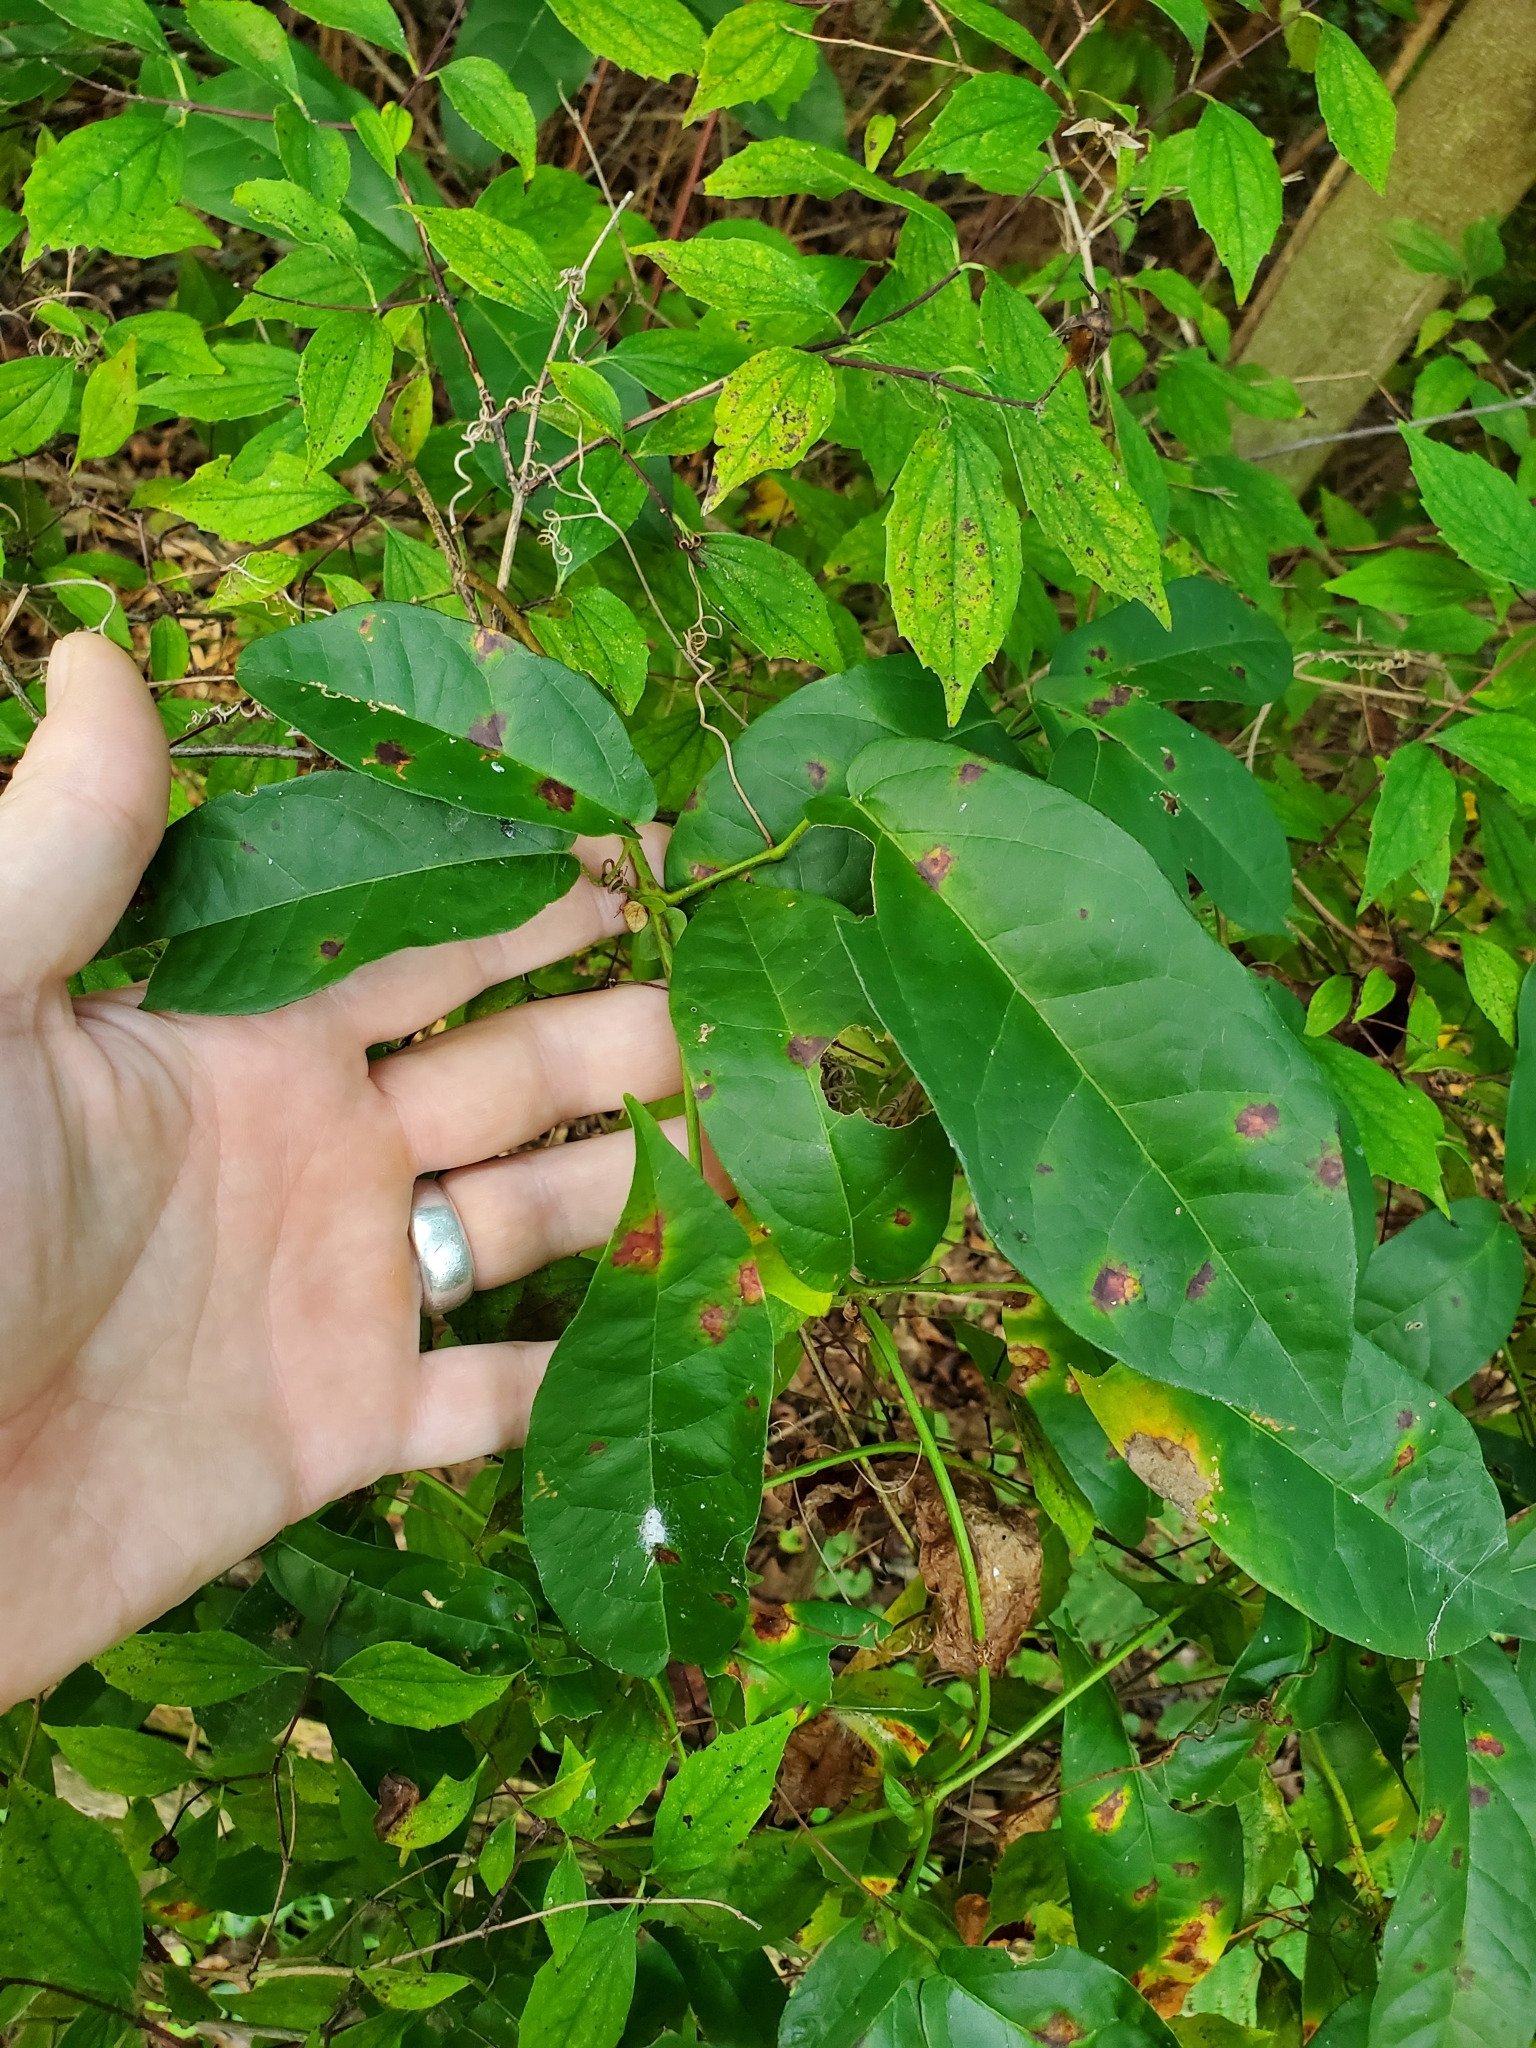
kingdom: Plantae
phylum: Tracheophyta
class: Magnoliopsida
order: Lamiales
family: Bignoniaceae
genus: Bignonia
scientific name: Bignonia capreolata
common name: Crossvine
